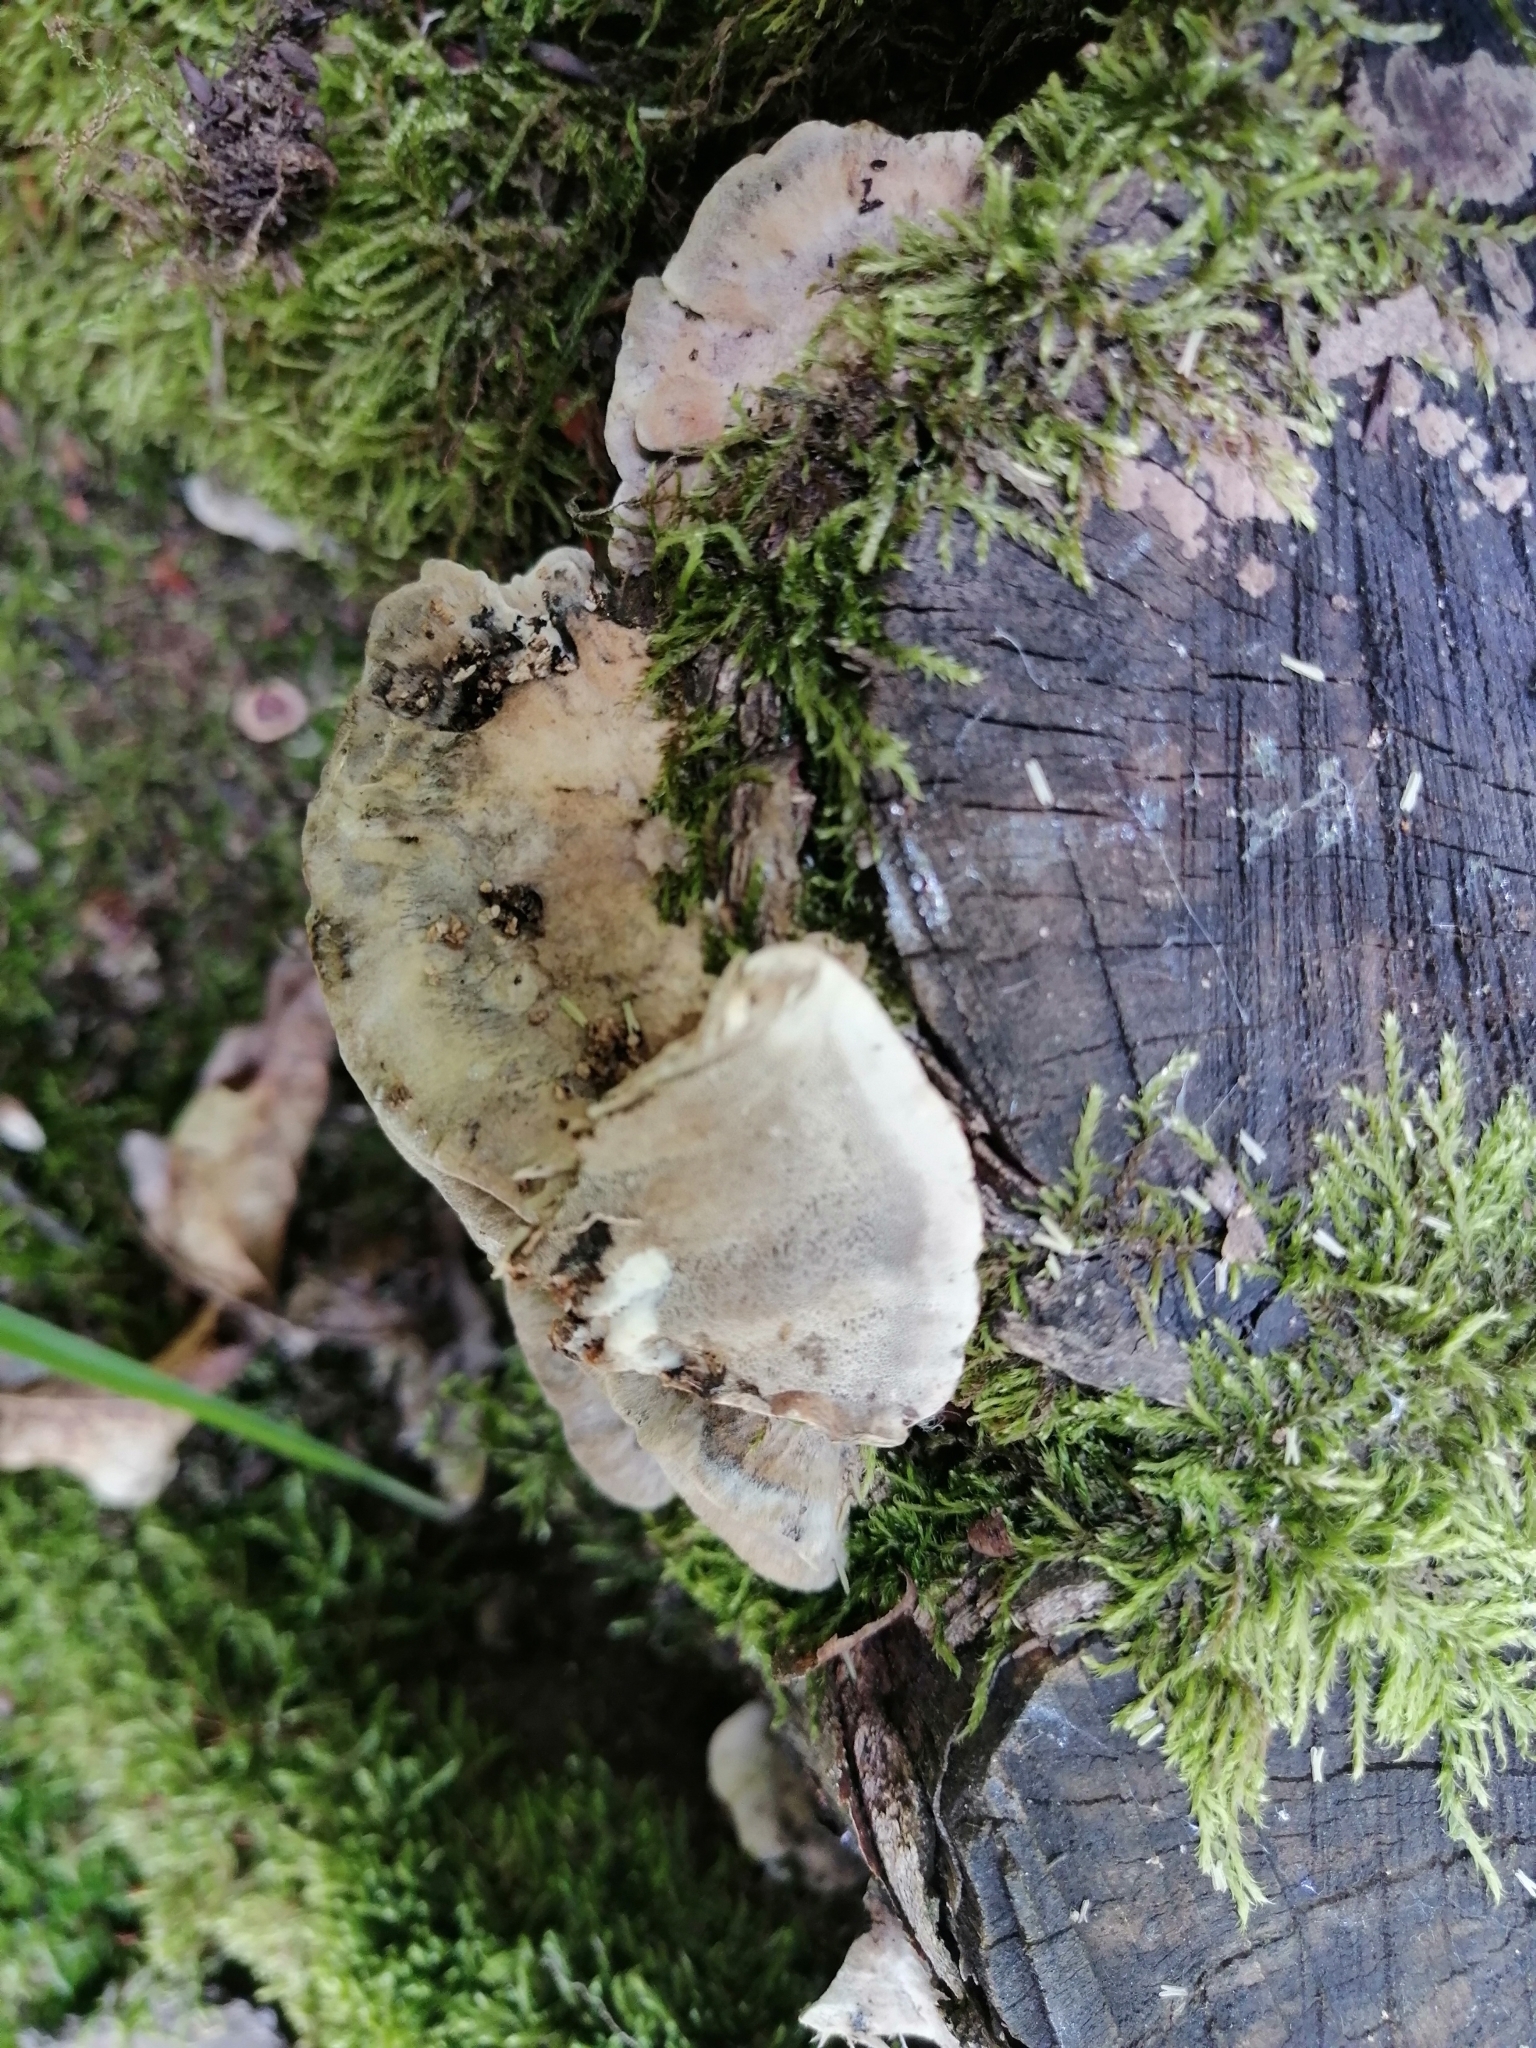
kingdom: Fungi
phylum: Basidiomycota
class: Agaricomycetes
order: Polyporales
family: Phanerochaetaceae
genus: Bjerkandera
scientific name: Bjerkandera adusta
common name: Smoky bracket
